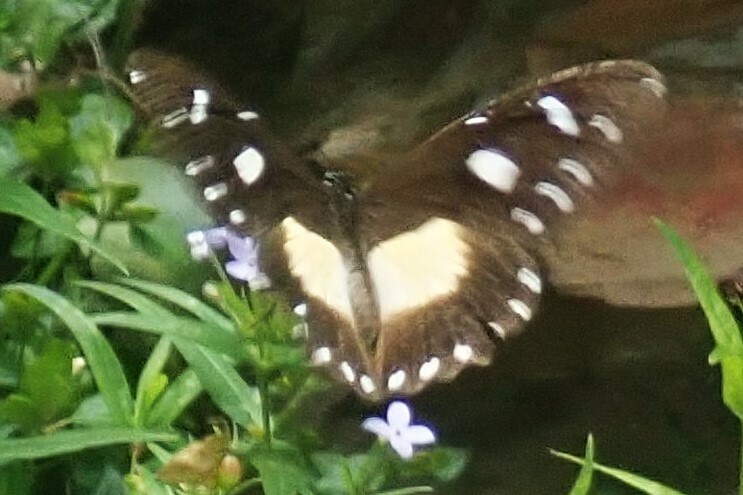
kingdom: Animalia
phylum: Arthropoda
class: Insecta
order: Lepidoptera
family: Papilionidae
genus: Papilio
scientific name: Papilio echerioides
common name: White-banded swallowtail
